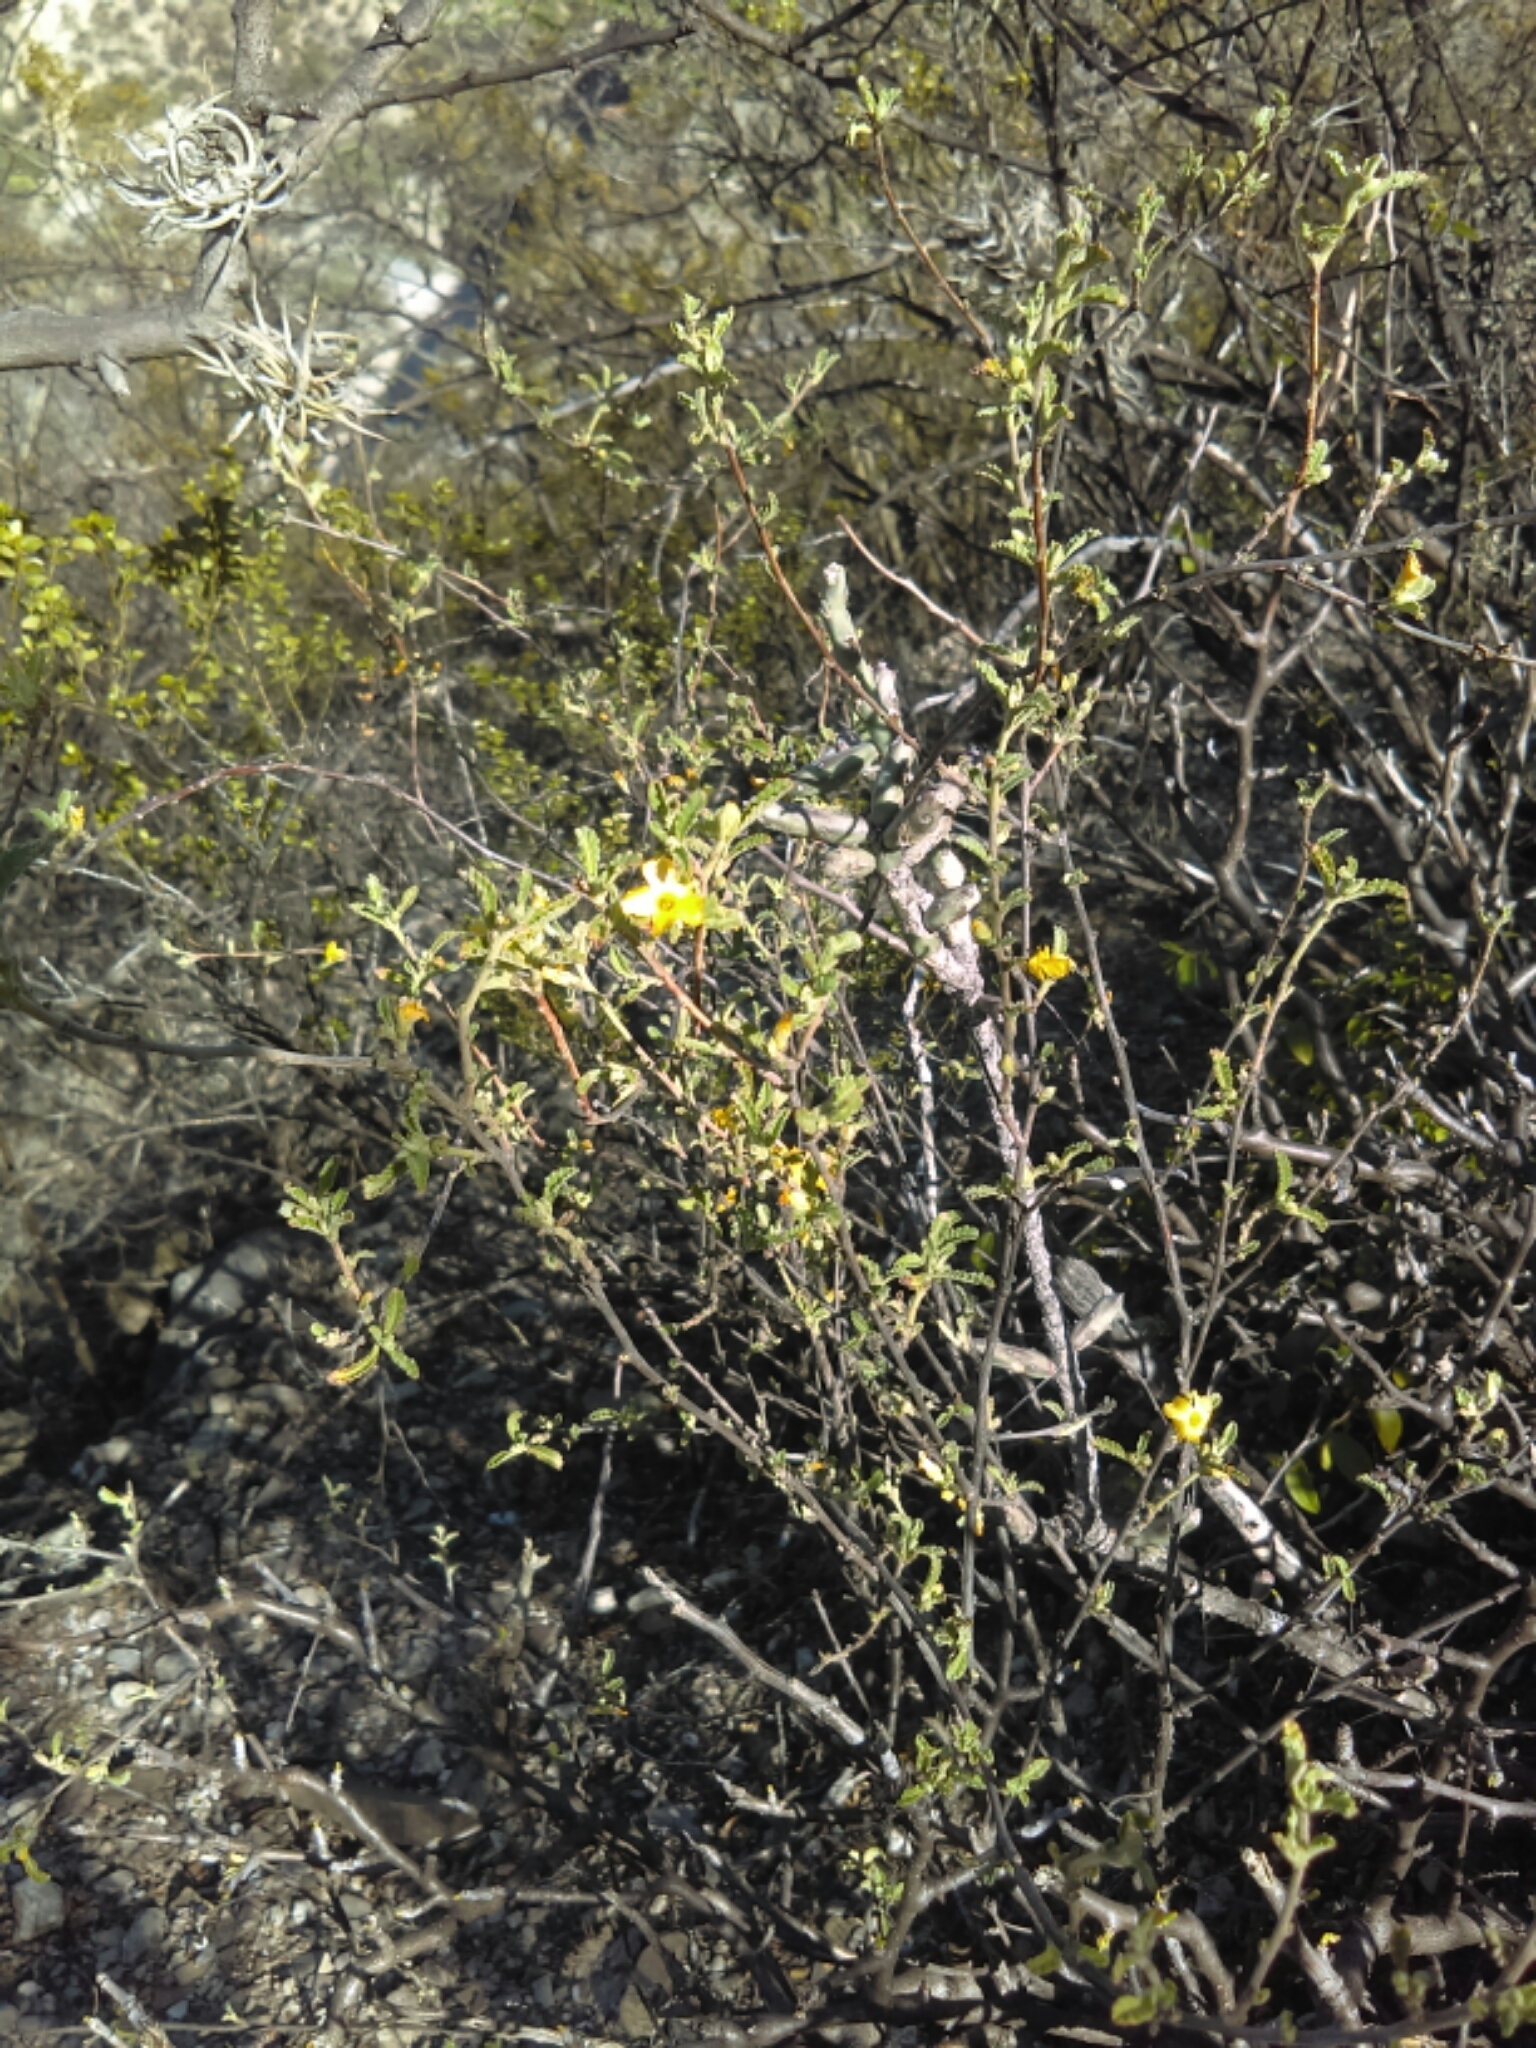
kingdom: Plantae
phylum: Tracheophyta
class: Magnoliopsida
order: Malpighiales
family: Turneraceae
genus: Turnera
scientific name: Turnera diffusa
